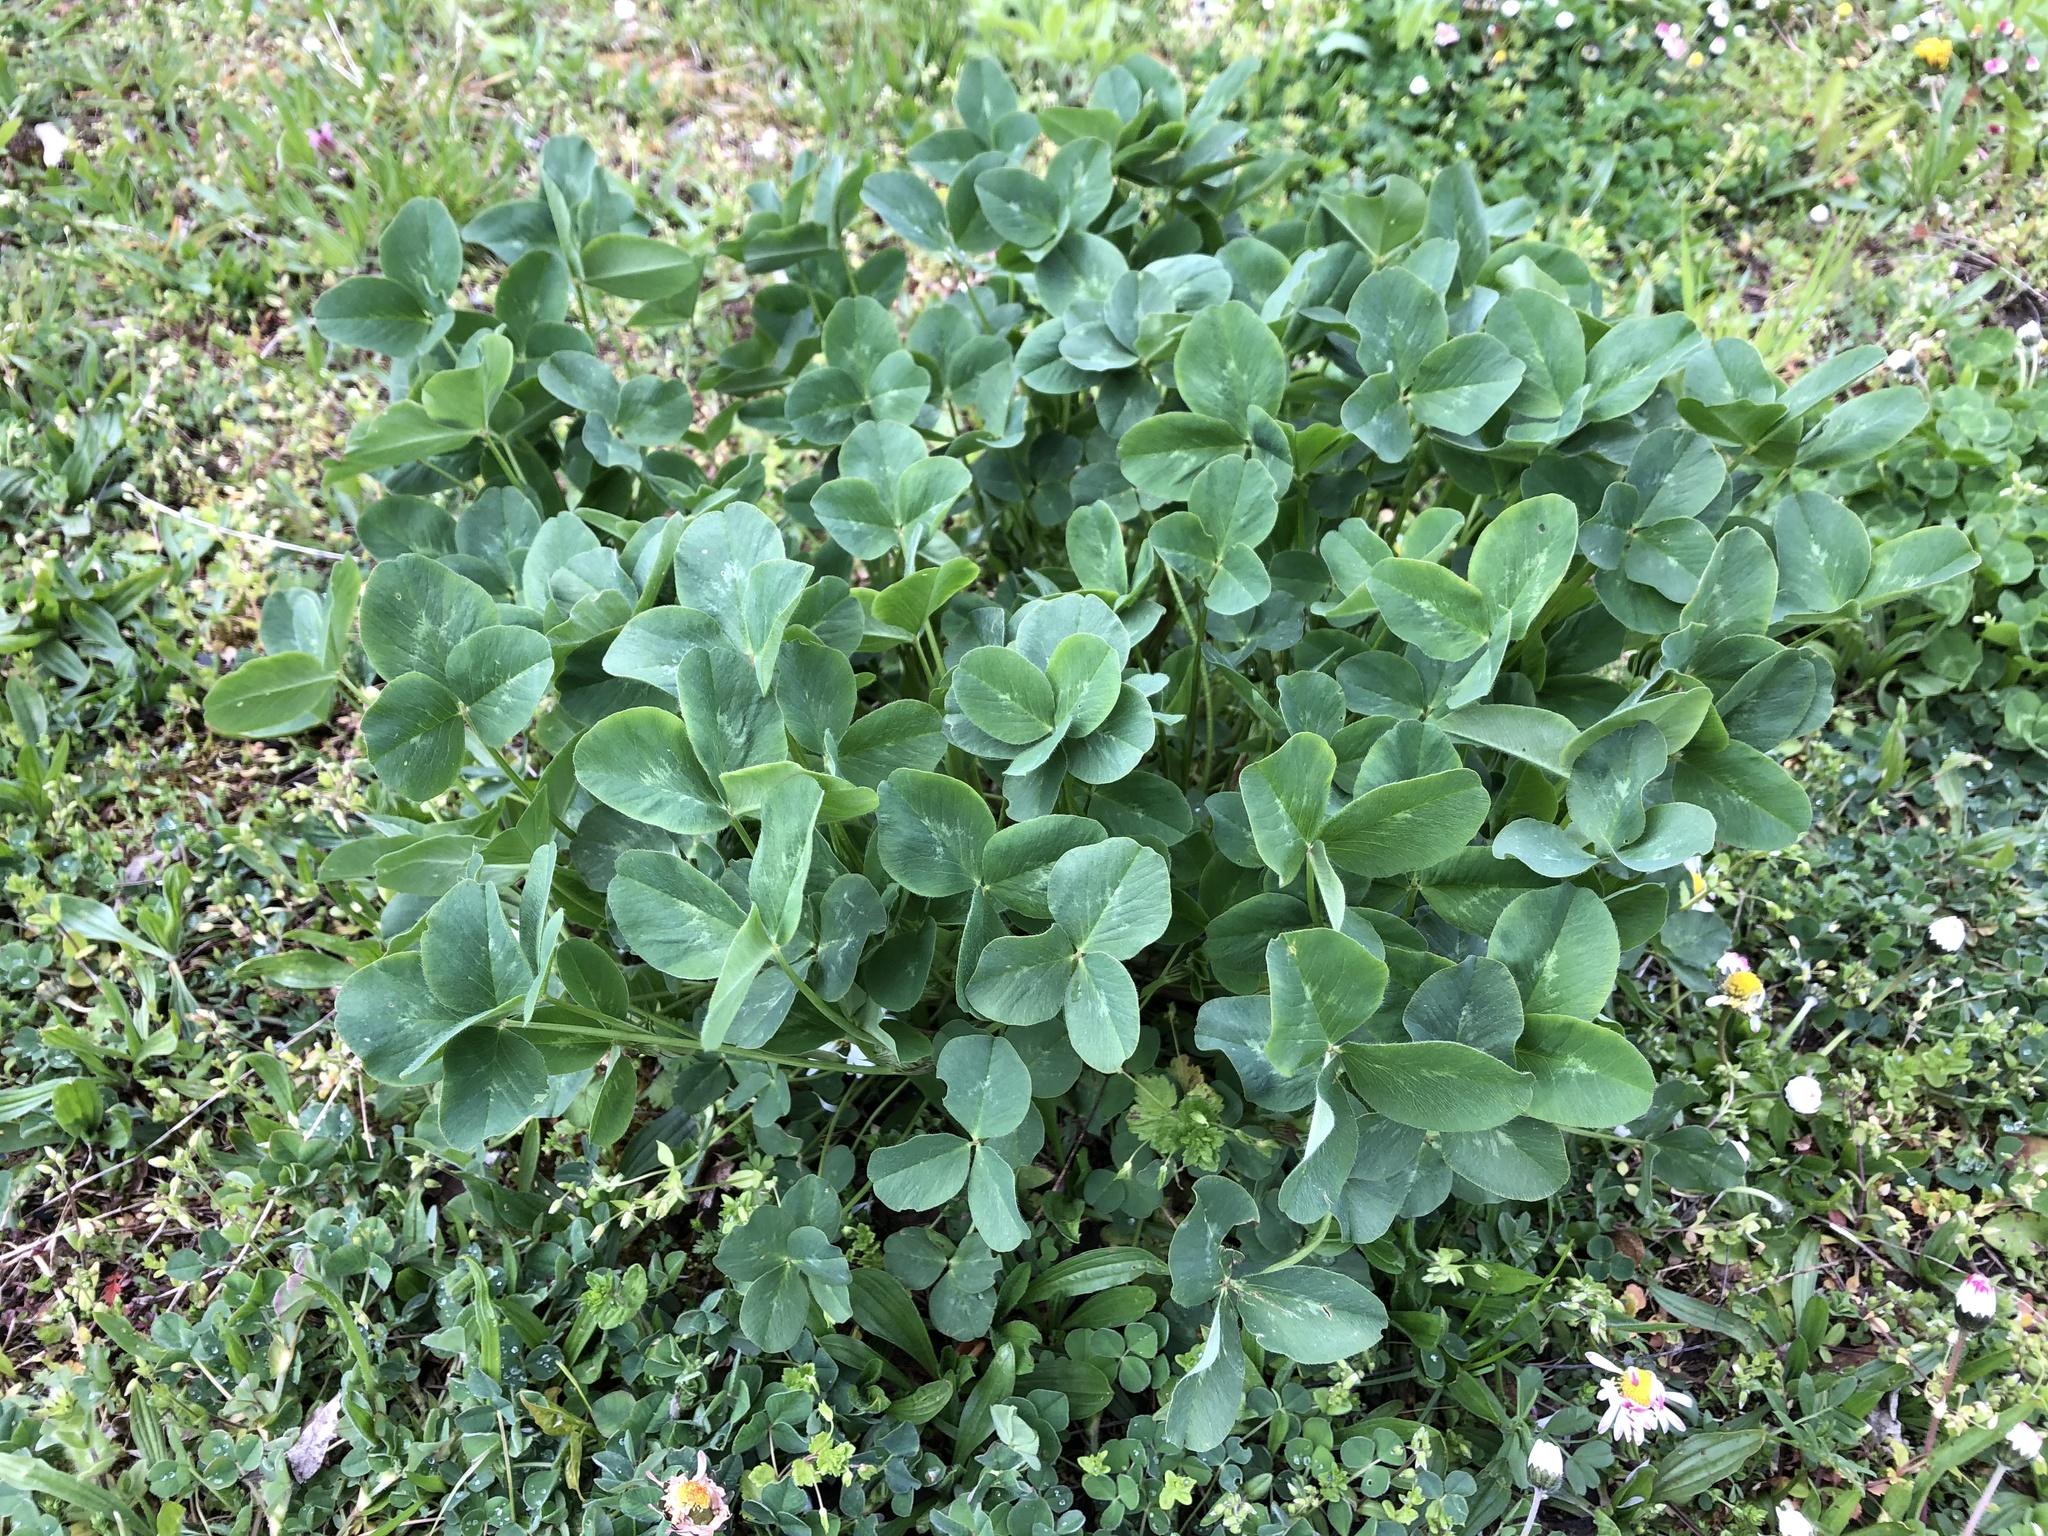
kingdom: Plantae
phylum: Tracheophyta
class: Magnoliopsida
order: Fabales
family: Fabaceae
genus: Trifolium
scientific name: Trifolium pratense
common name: Red clover
